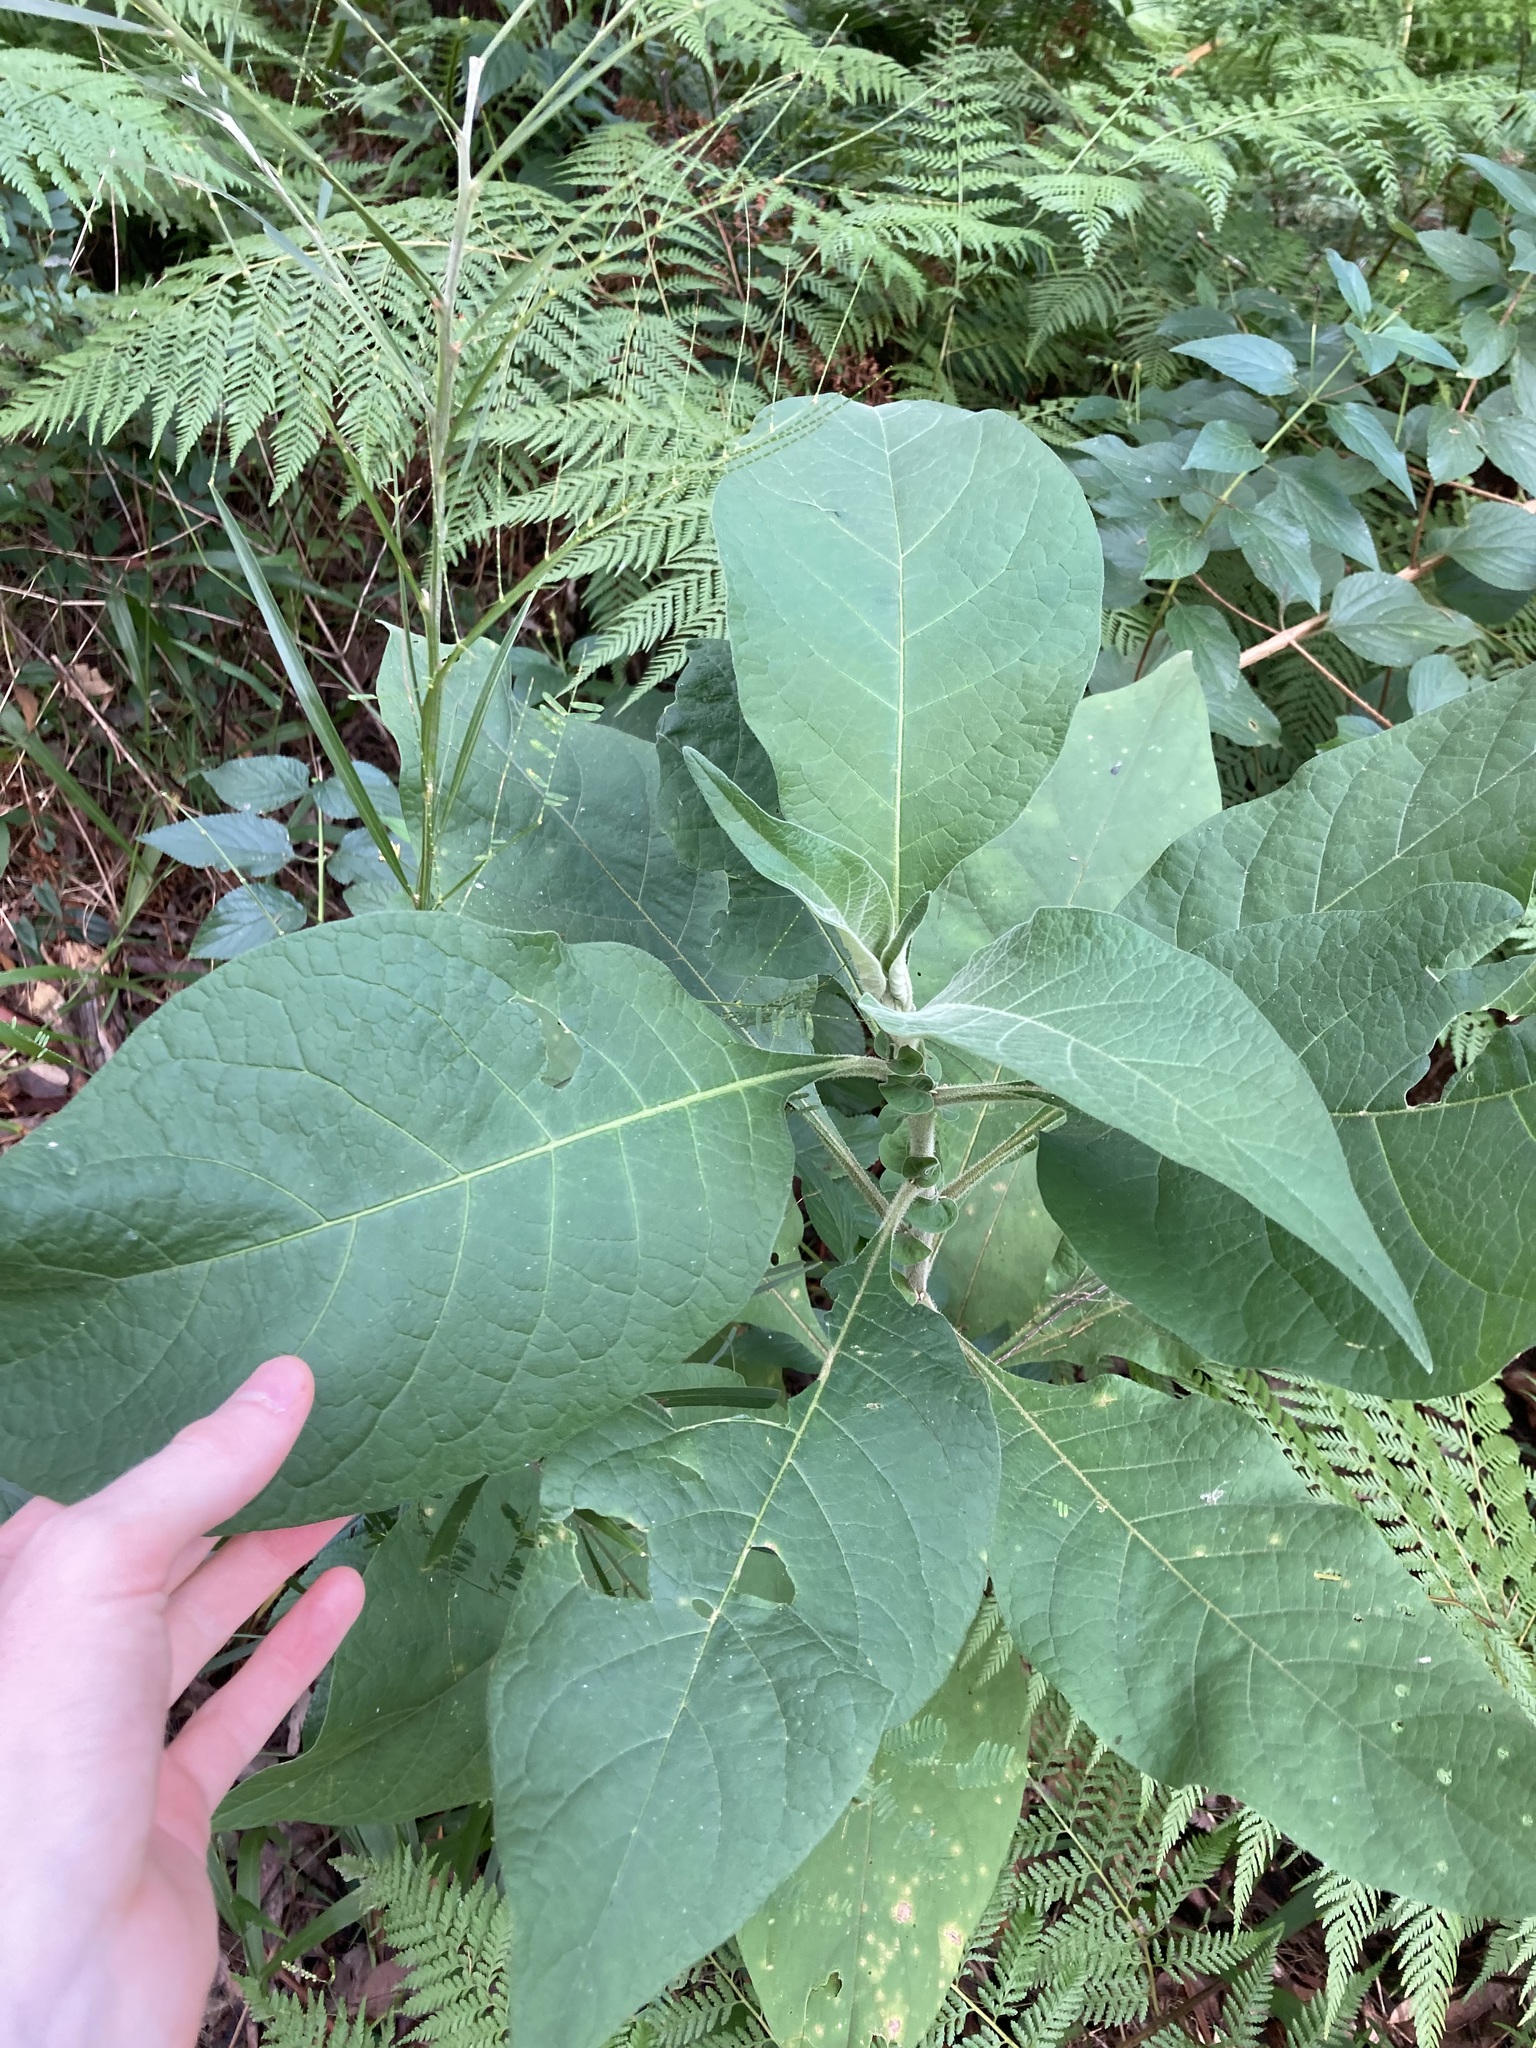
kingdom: Plantae
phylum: Tracheophyta
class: Magnoliopsida
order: Solanales
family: Solanaceae
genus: Solanum
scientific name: Solanum mauritianum
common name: Earleaf nightshade
